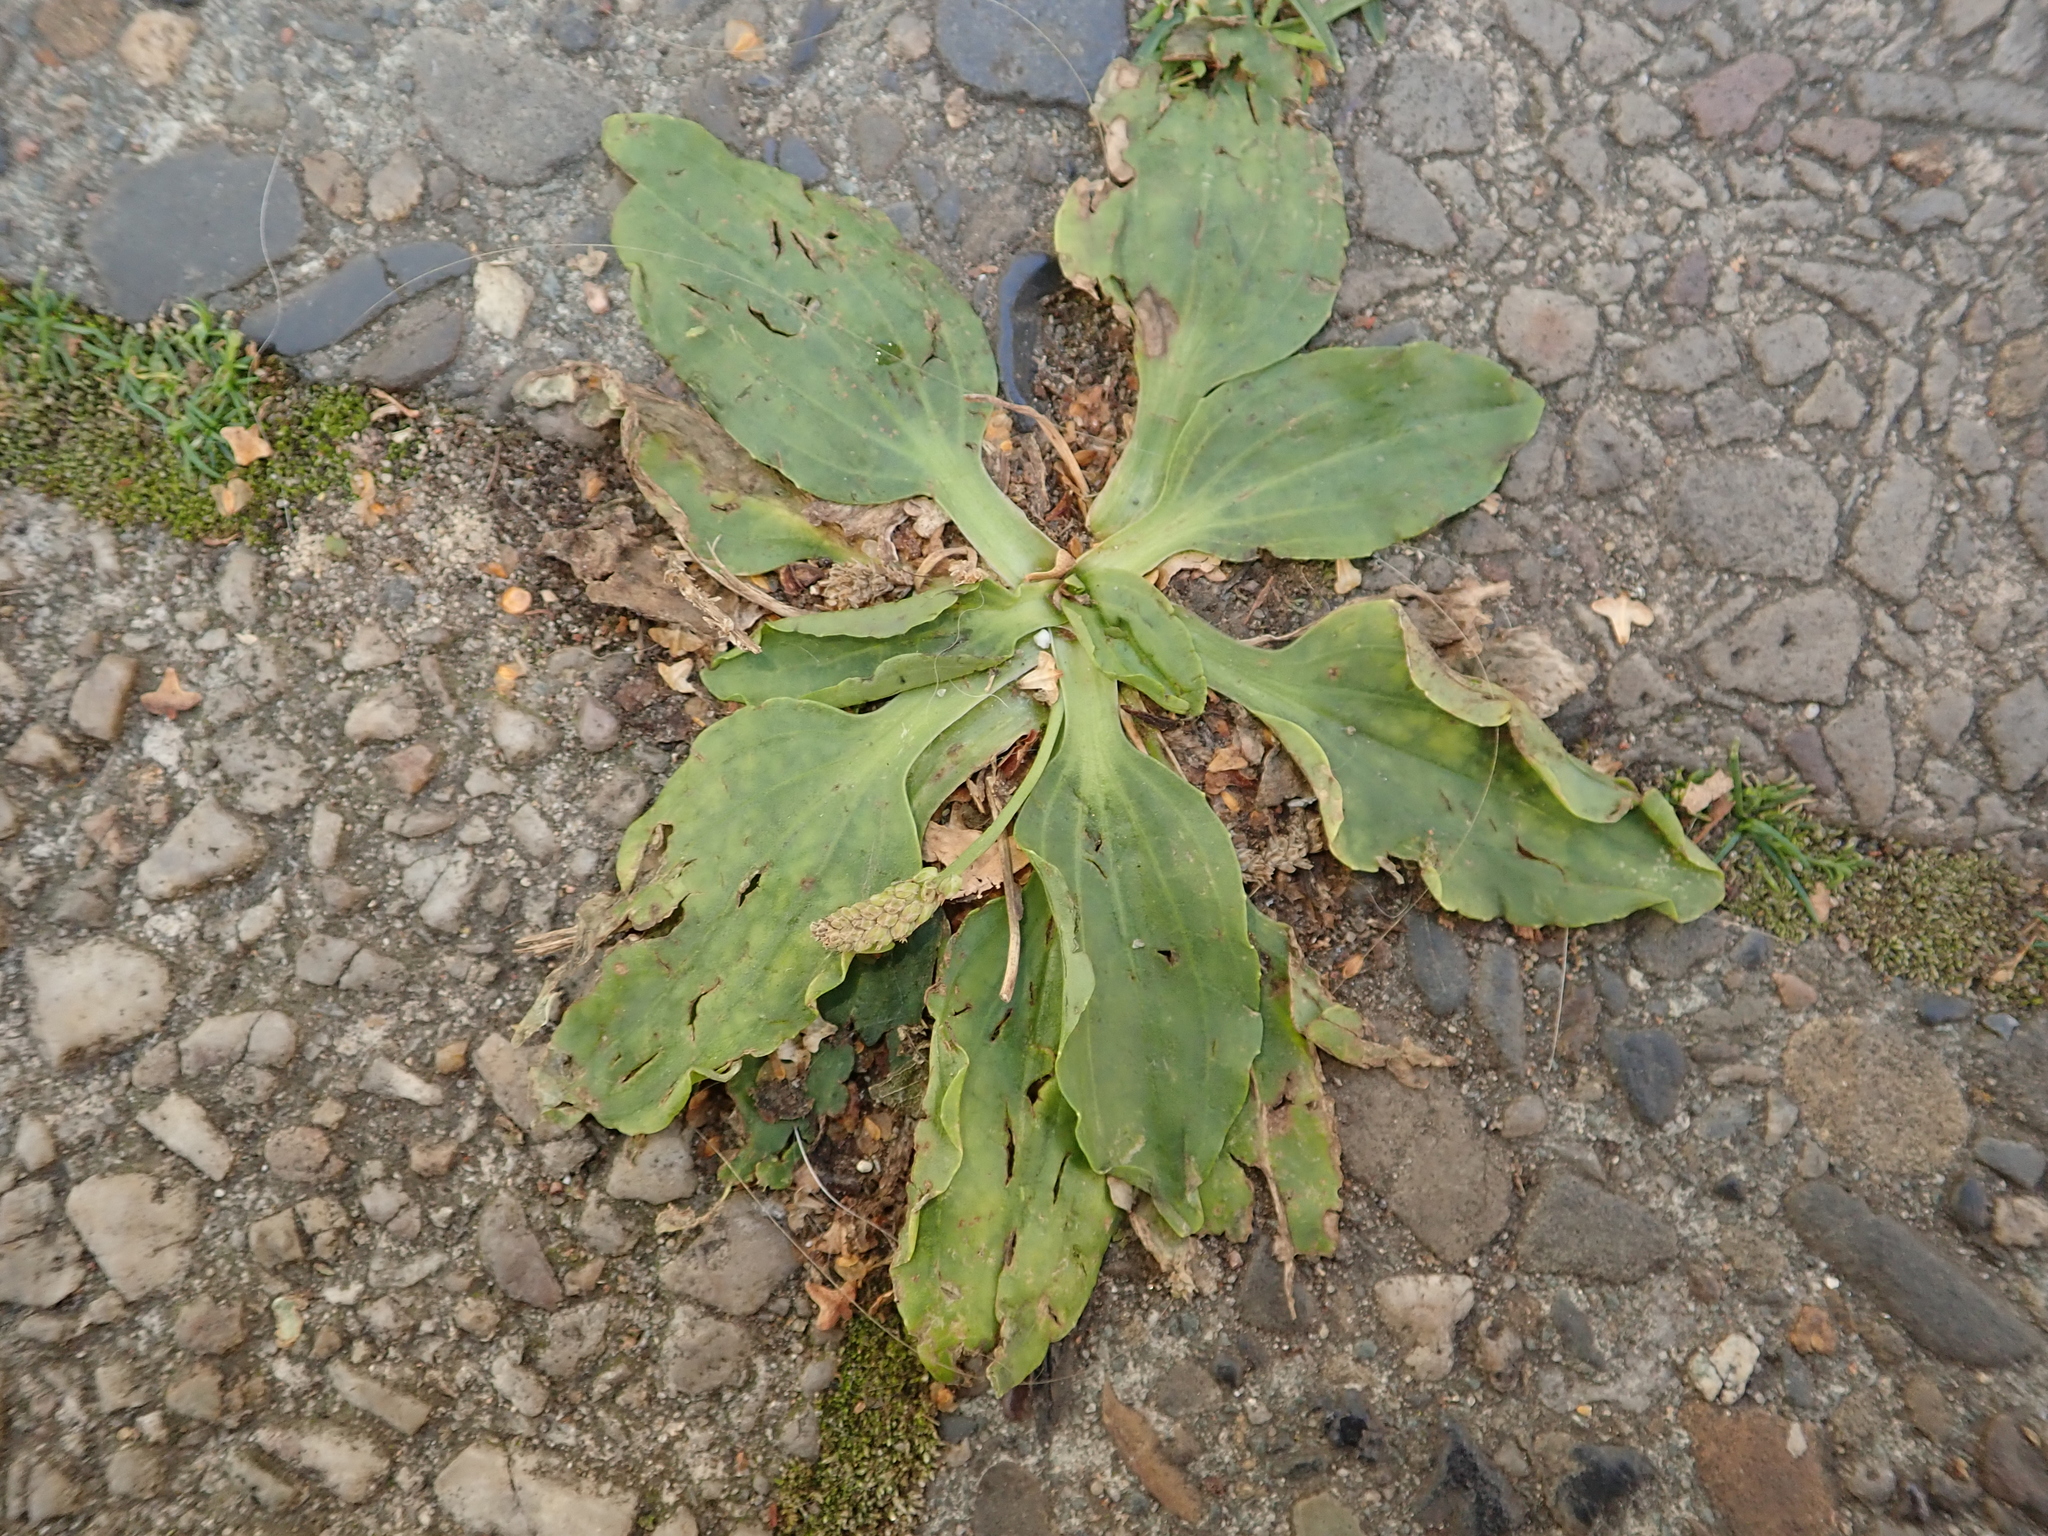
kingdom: Plantae
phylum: Tracheophyta
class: Magnoliopsida
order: Lamiales
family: Plantaginaceae
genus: Plantago
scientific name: Plantago major
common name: Common plantain
